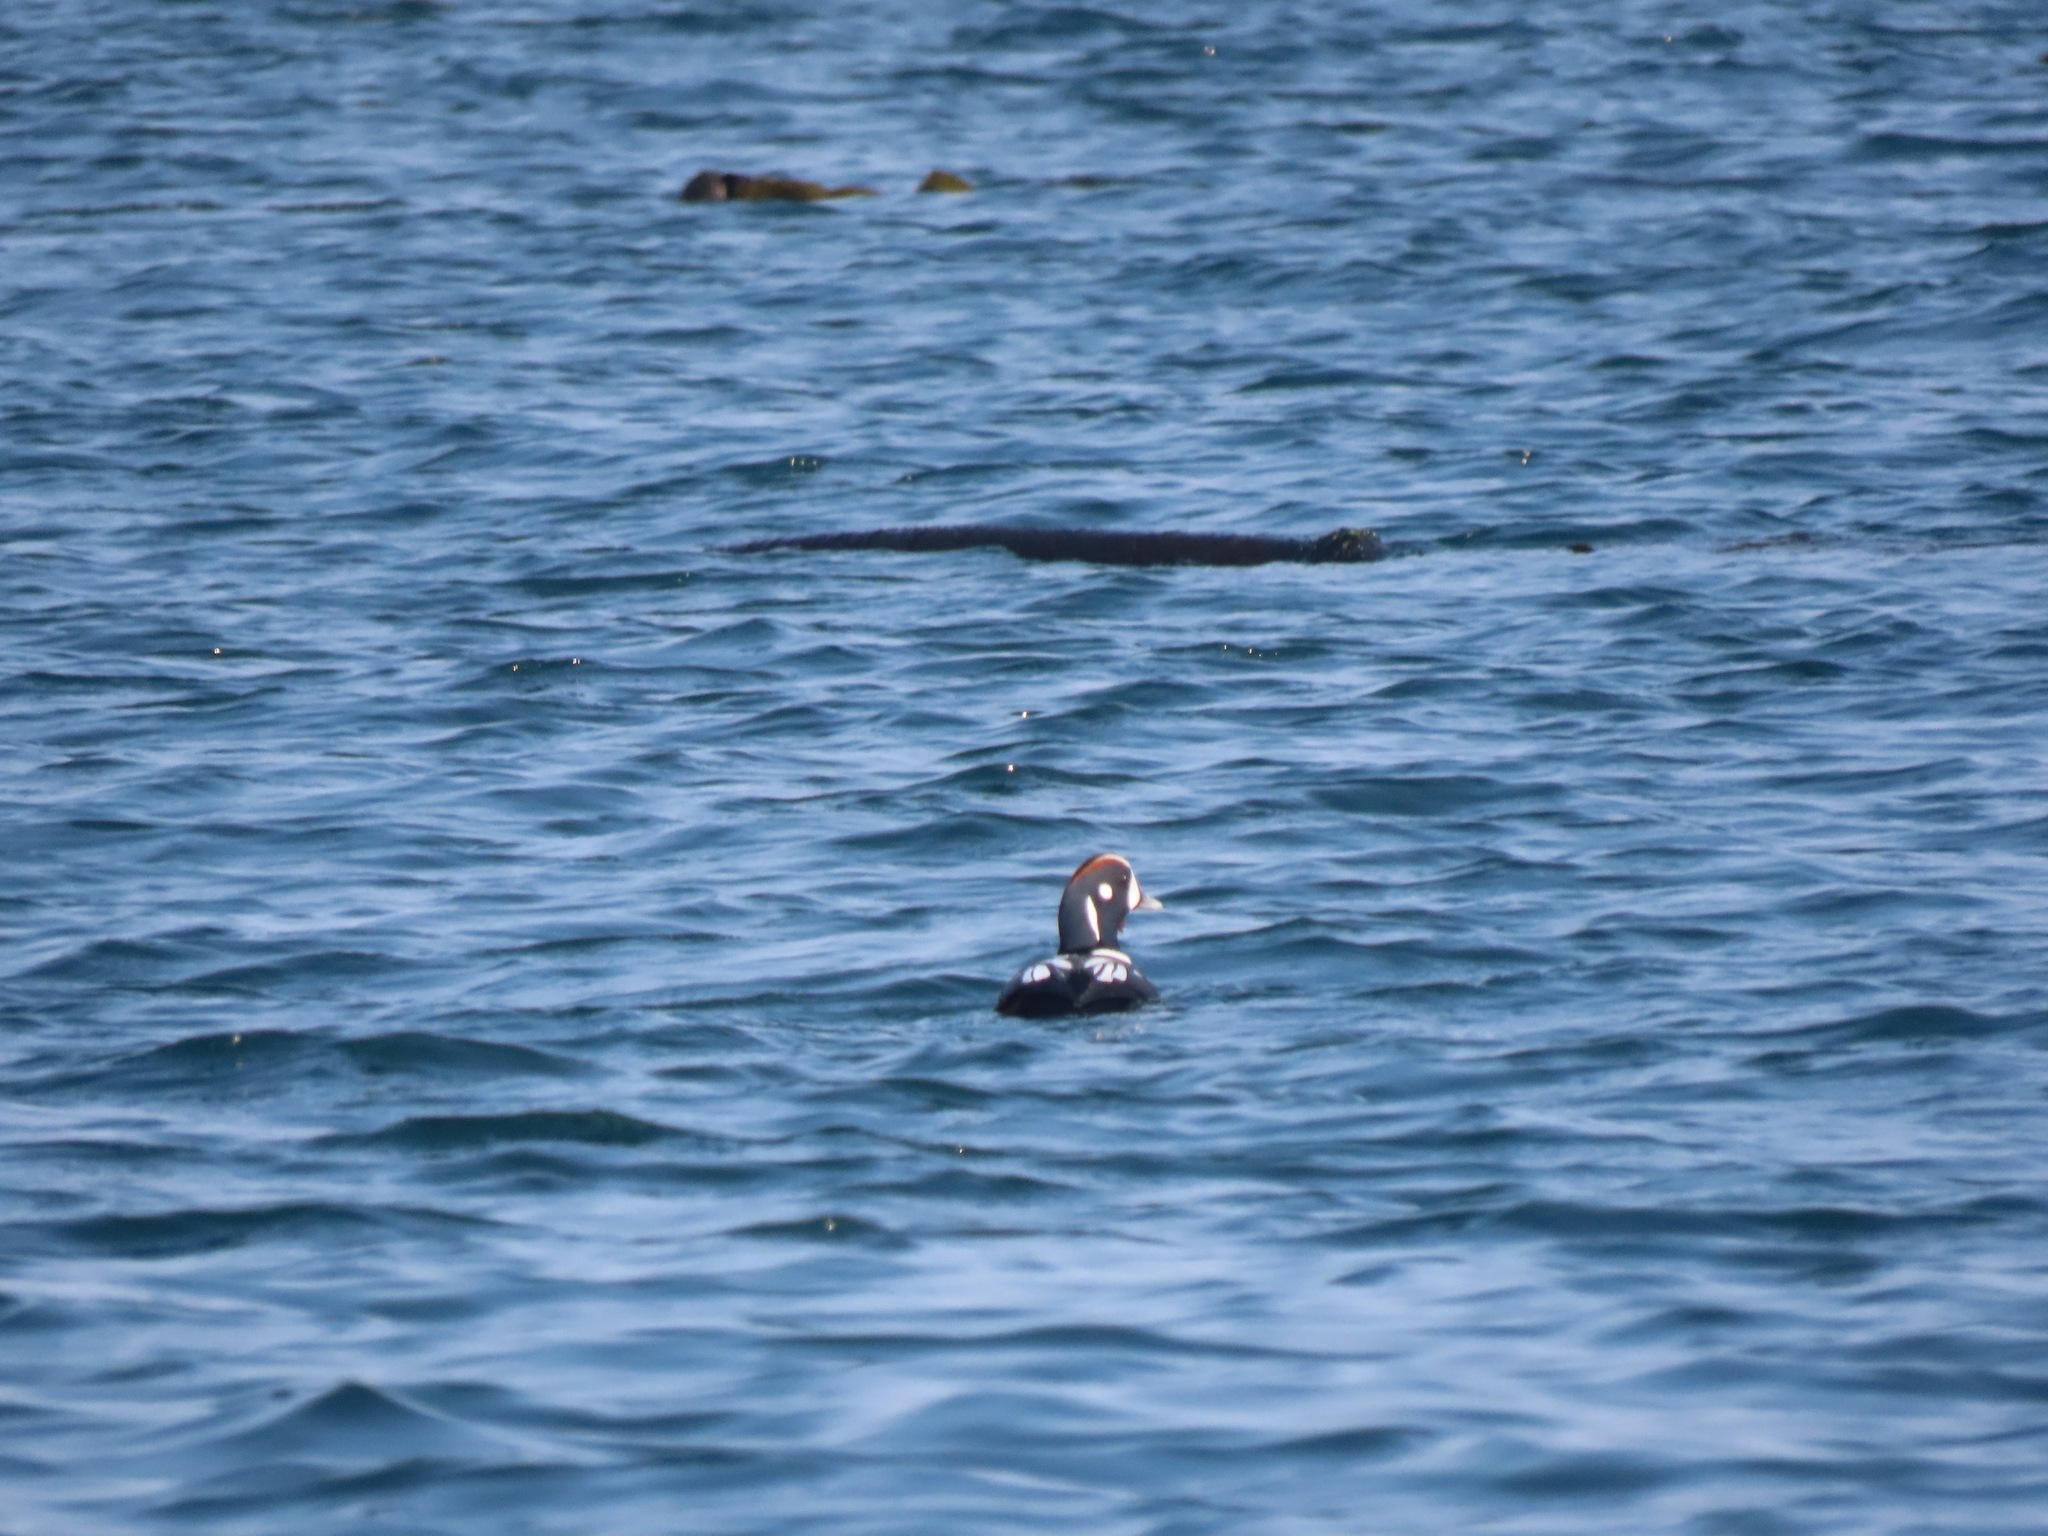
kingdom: Animalia
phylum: Chordata
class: Aves
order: Anseriformes
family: Anatidae
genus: Histrionicus
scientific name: Histrionicus histrionicus
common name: Harlequin duck
